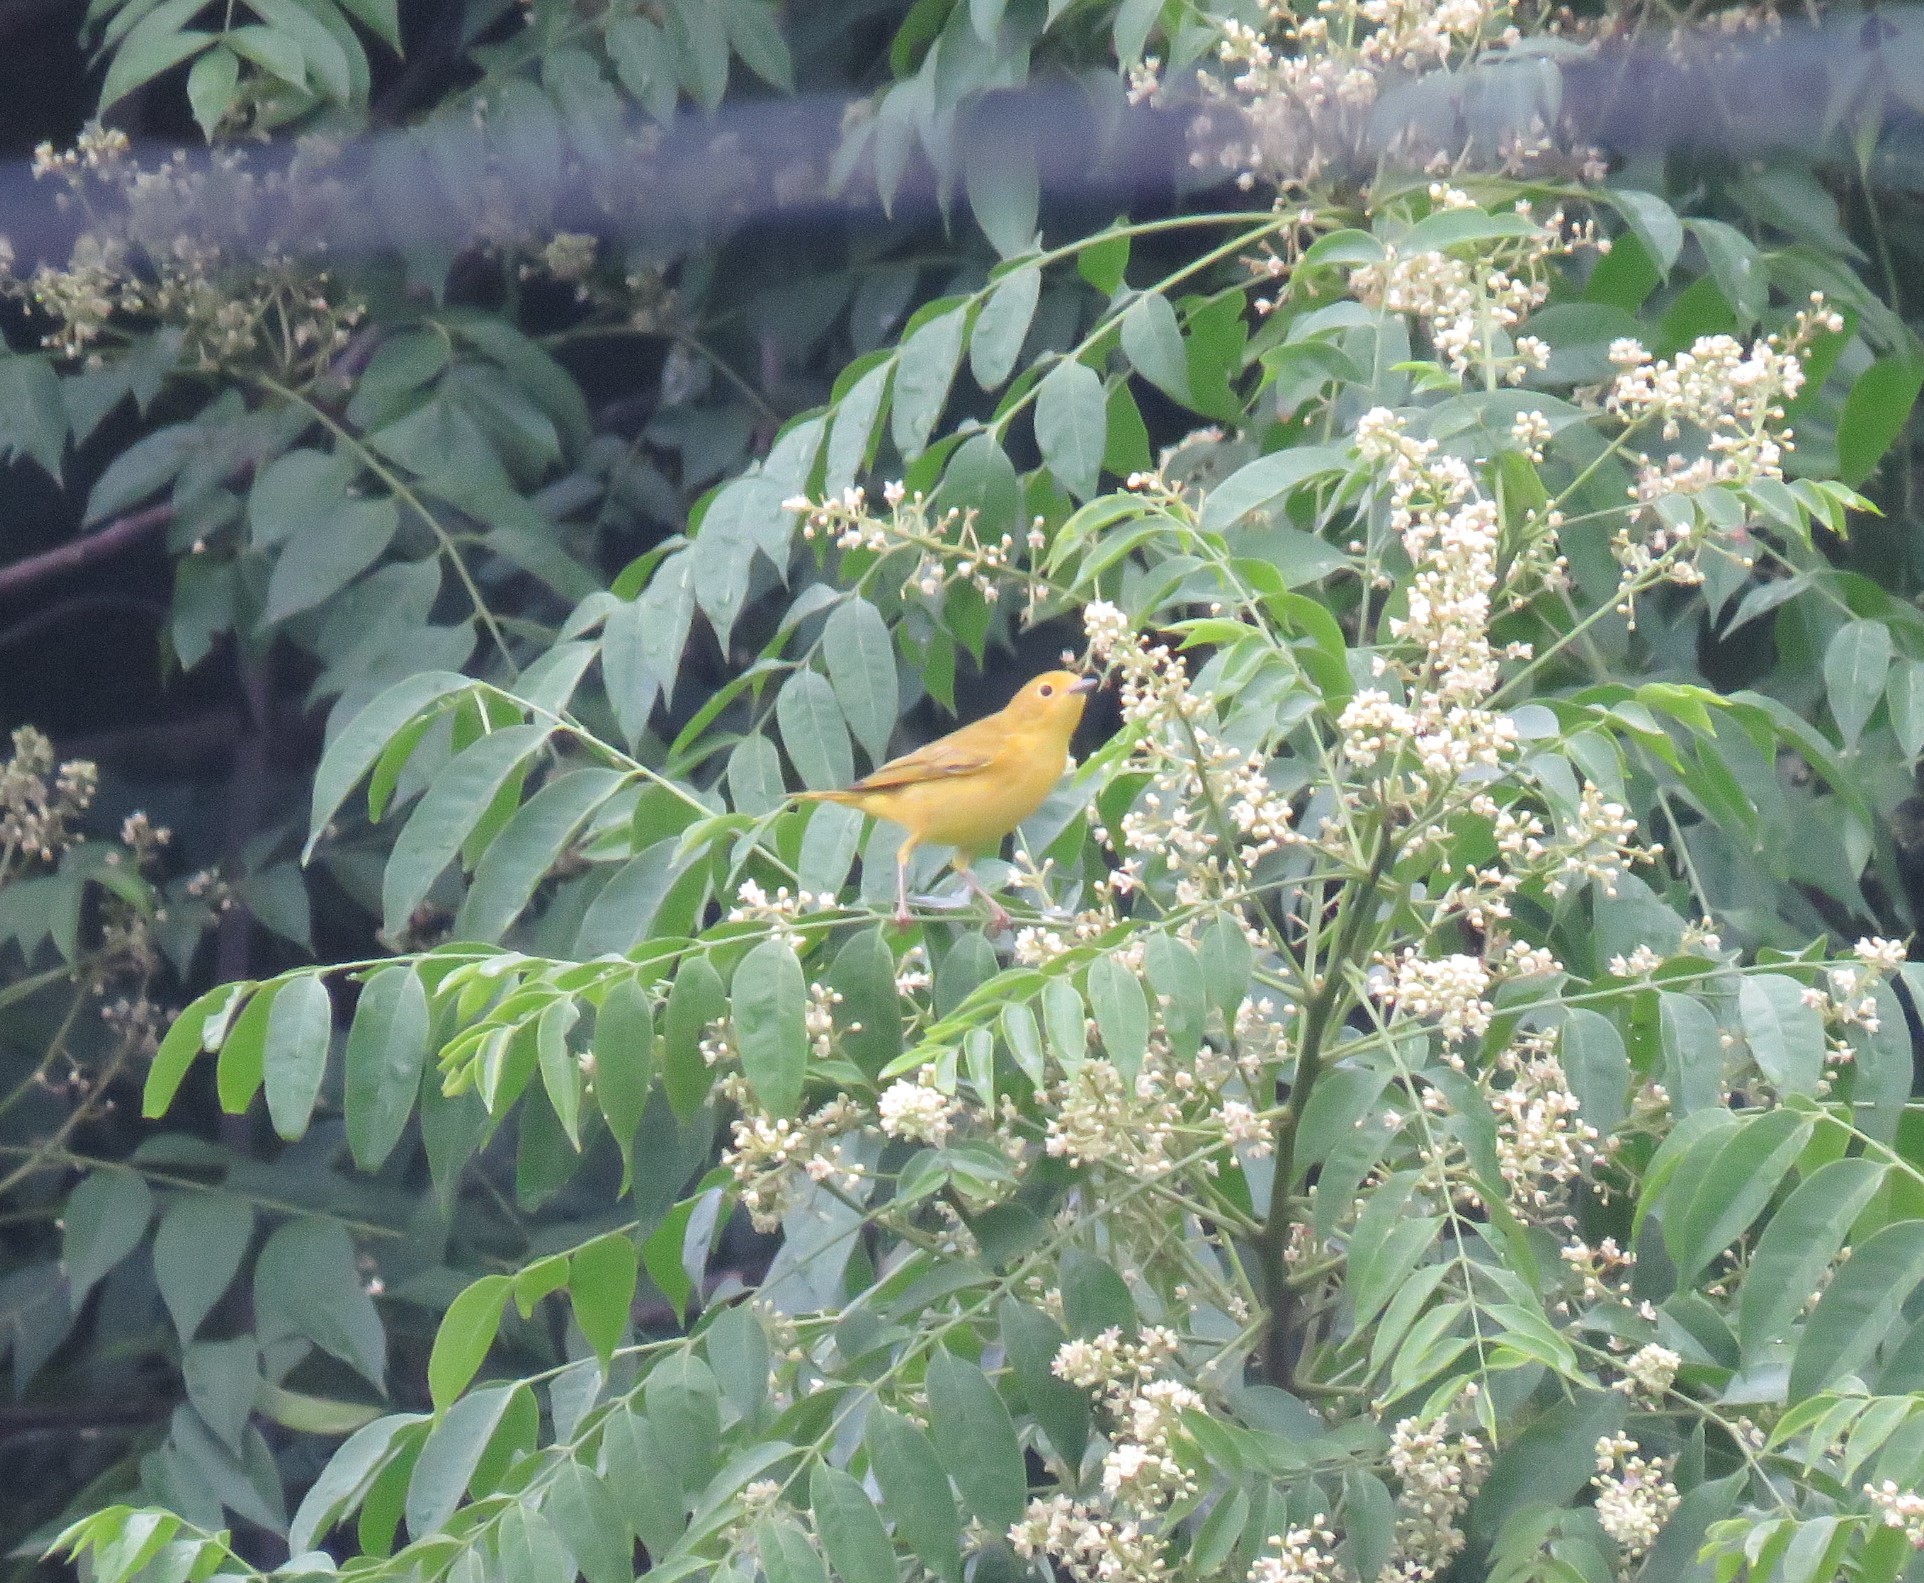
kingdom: Animalia
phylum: Chordata
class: Aves
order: Passeriformes
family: Parulidae
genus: Setophaga
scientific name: Setophaga petechia
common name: Yellow warbler
